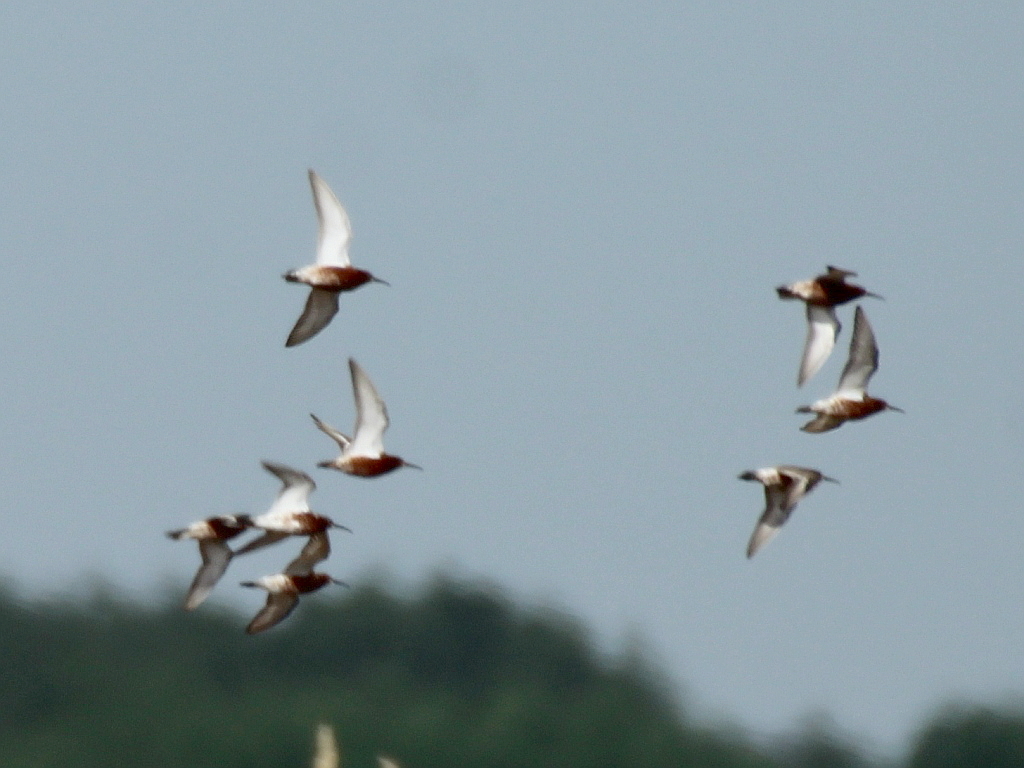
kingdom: Animalia
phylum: Chordata
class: Aves
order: Charadriiformes
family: Scolopacidae
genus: Calidris
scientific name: Calidris ferruginea
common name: Curlew sandpiper
